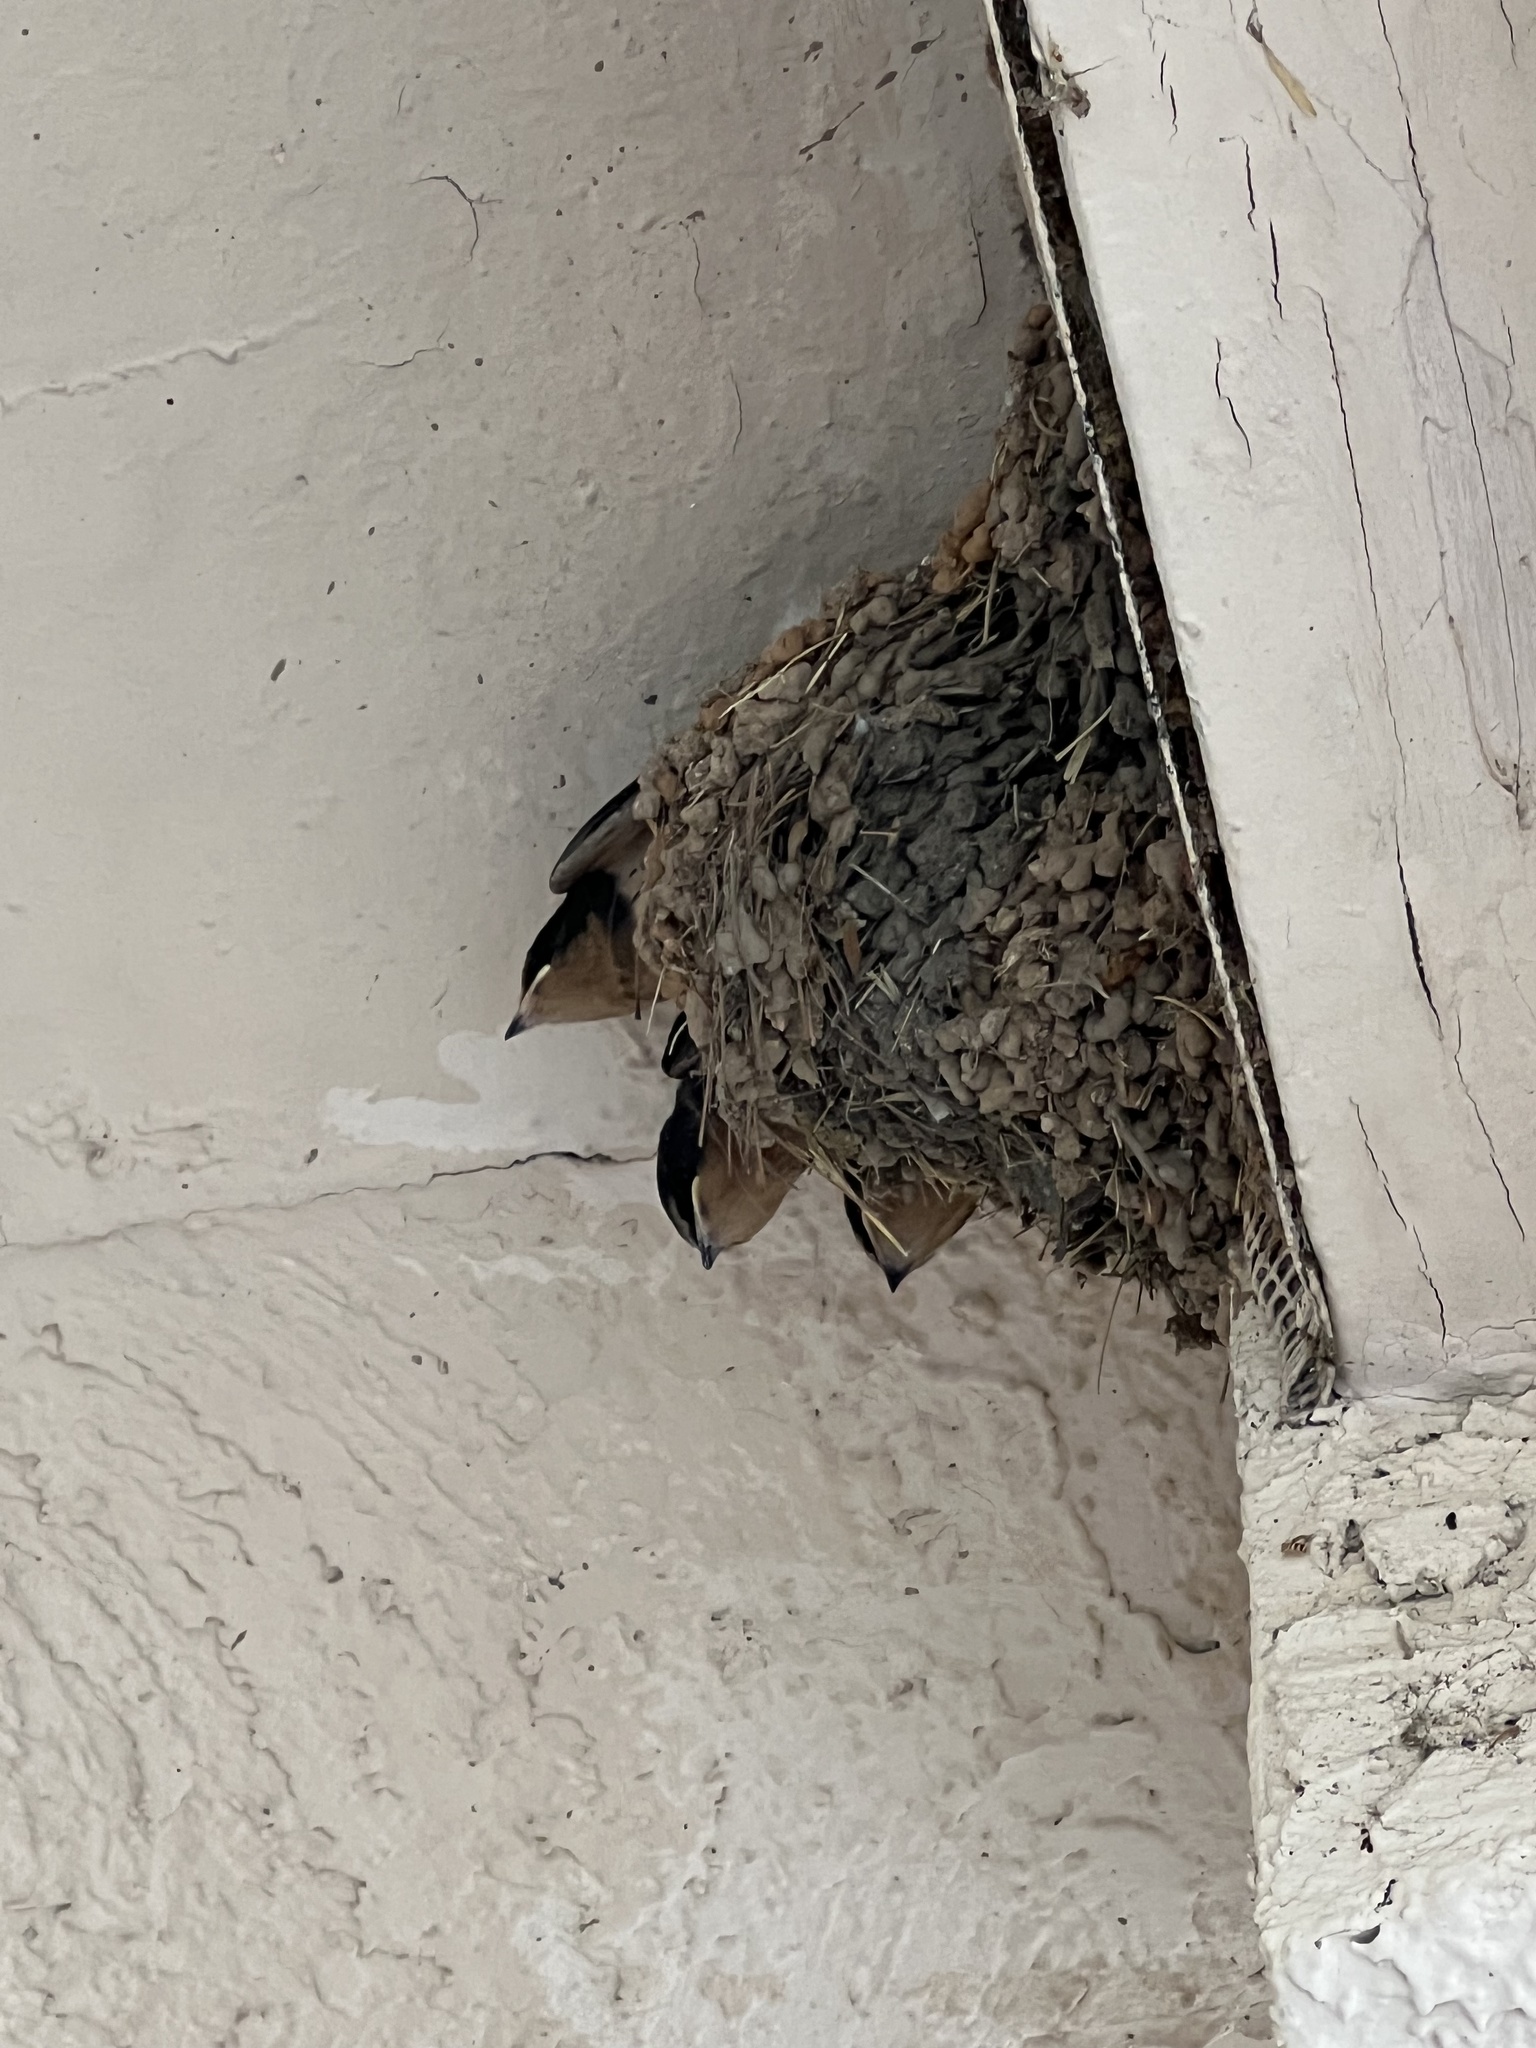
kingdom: Animalia
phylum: Chordata
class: Aves
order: Passeriformes
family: Hirundinidae
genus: Hirundo
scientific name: Hirundo rustica
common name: Barn swallow
